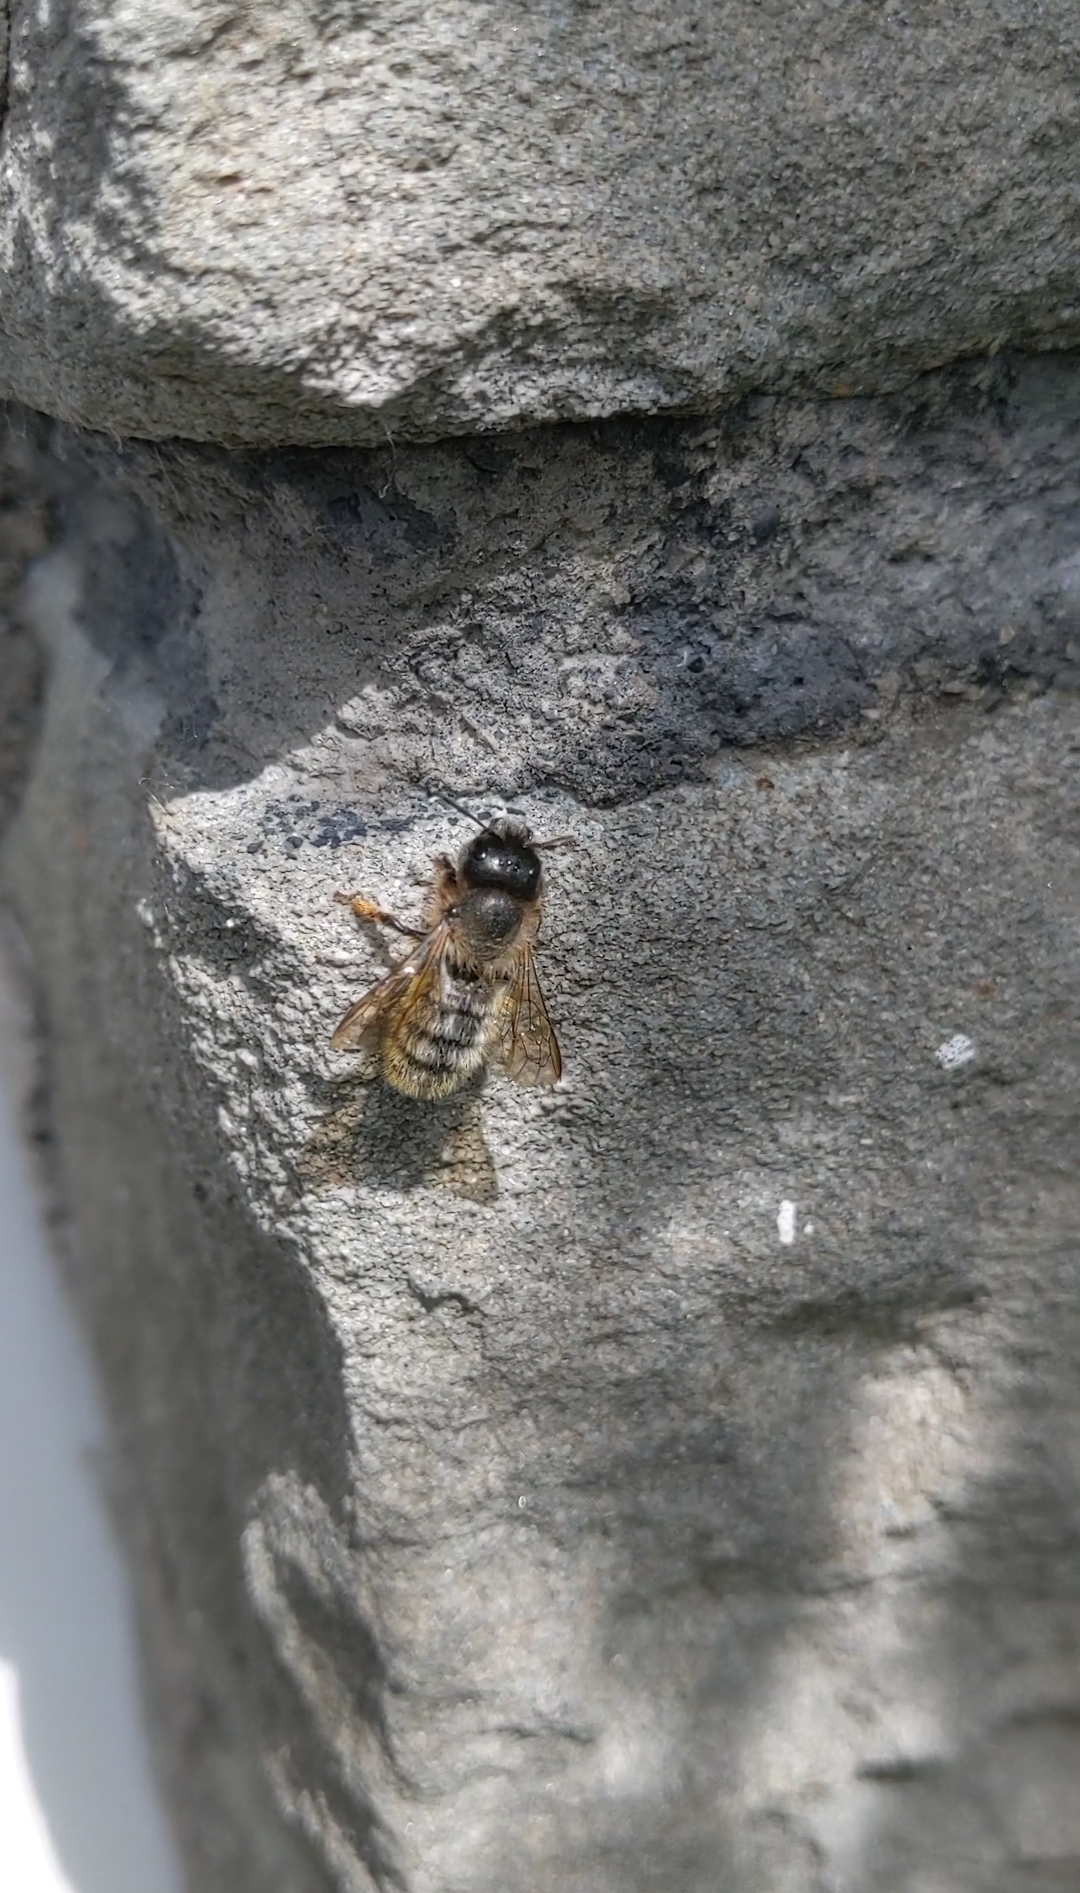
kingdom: Animalia
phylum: Arthropoda
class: Insecta
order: Hymenoptera
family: Megachilidae
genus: Osmia
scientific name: Osmia bicornis
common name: Red mason bee
